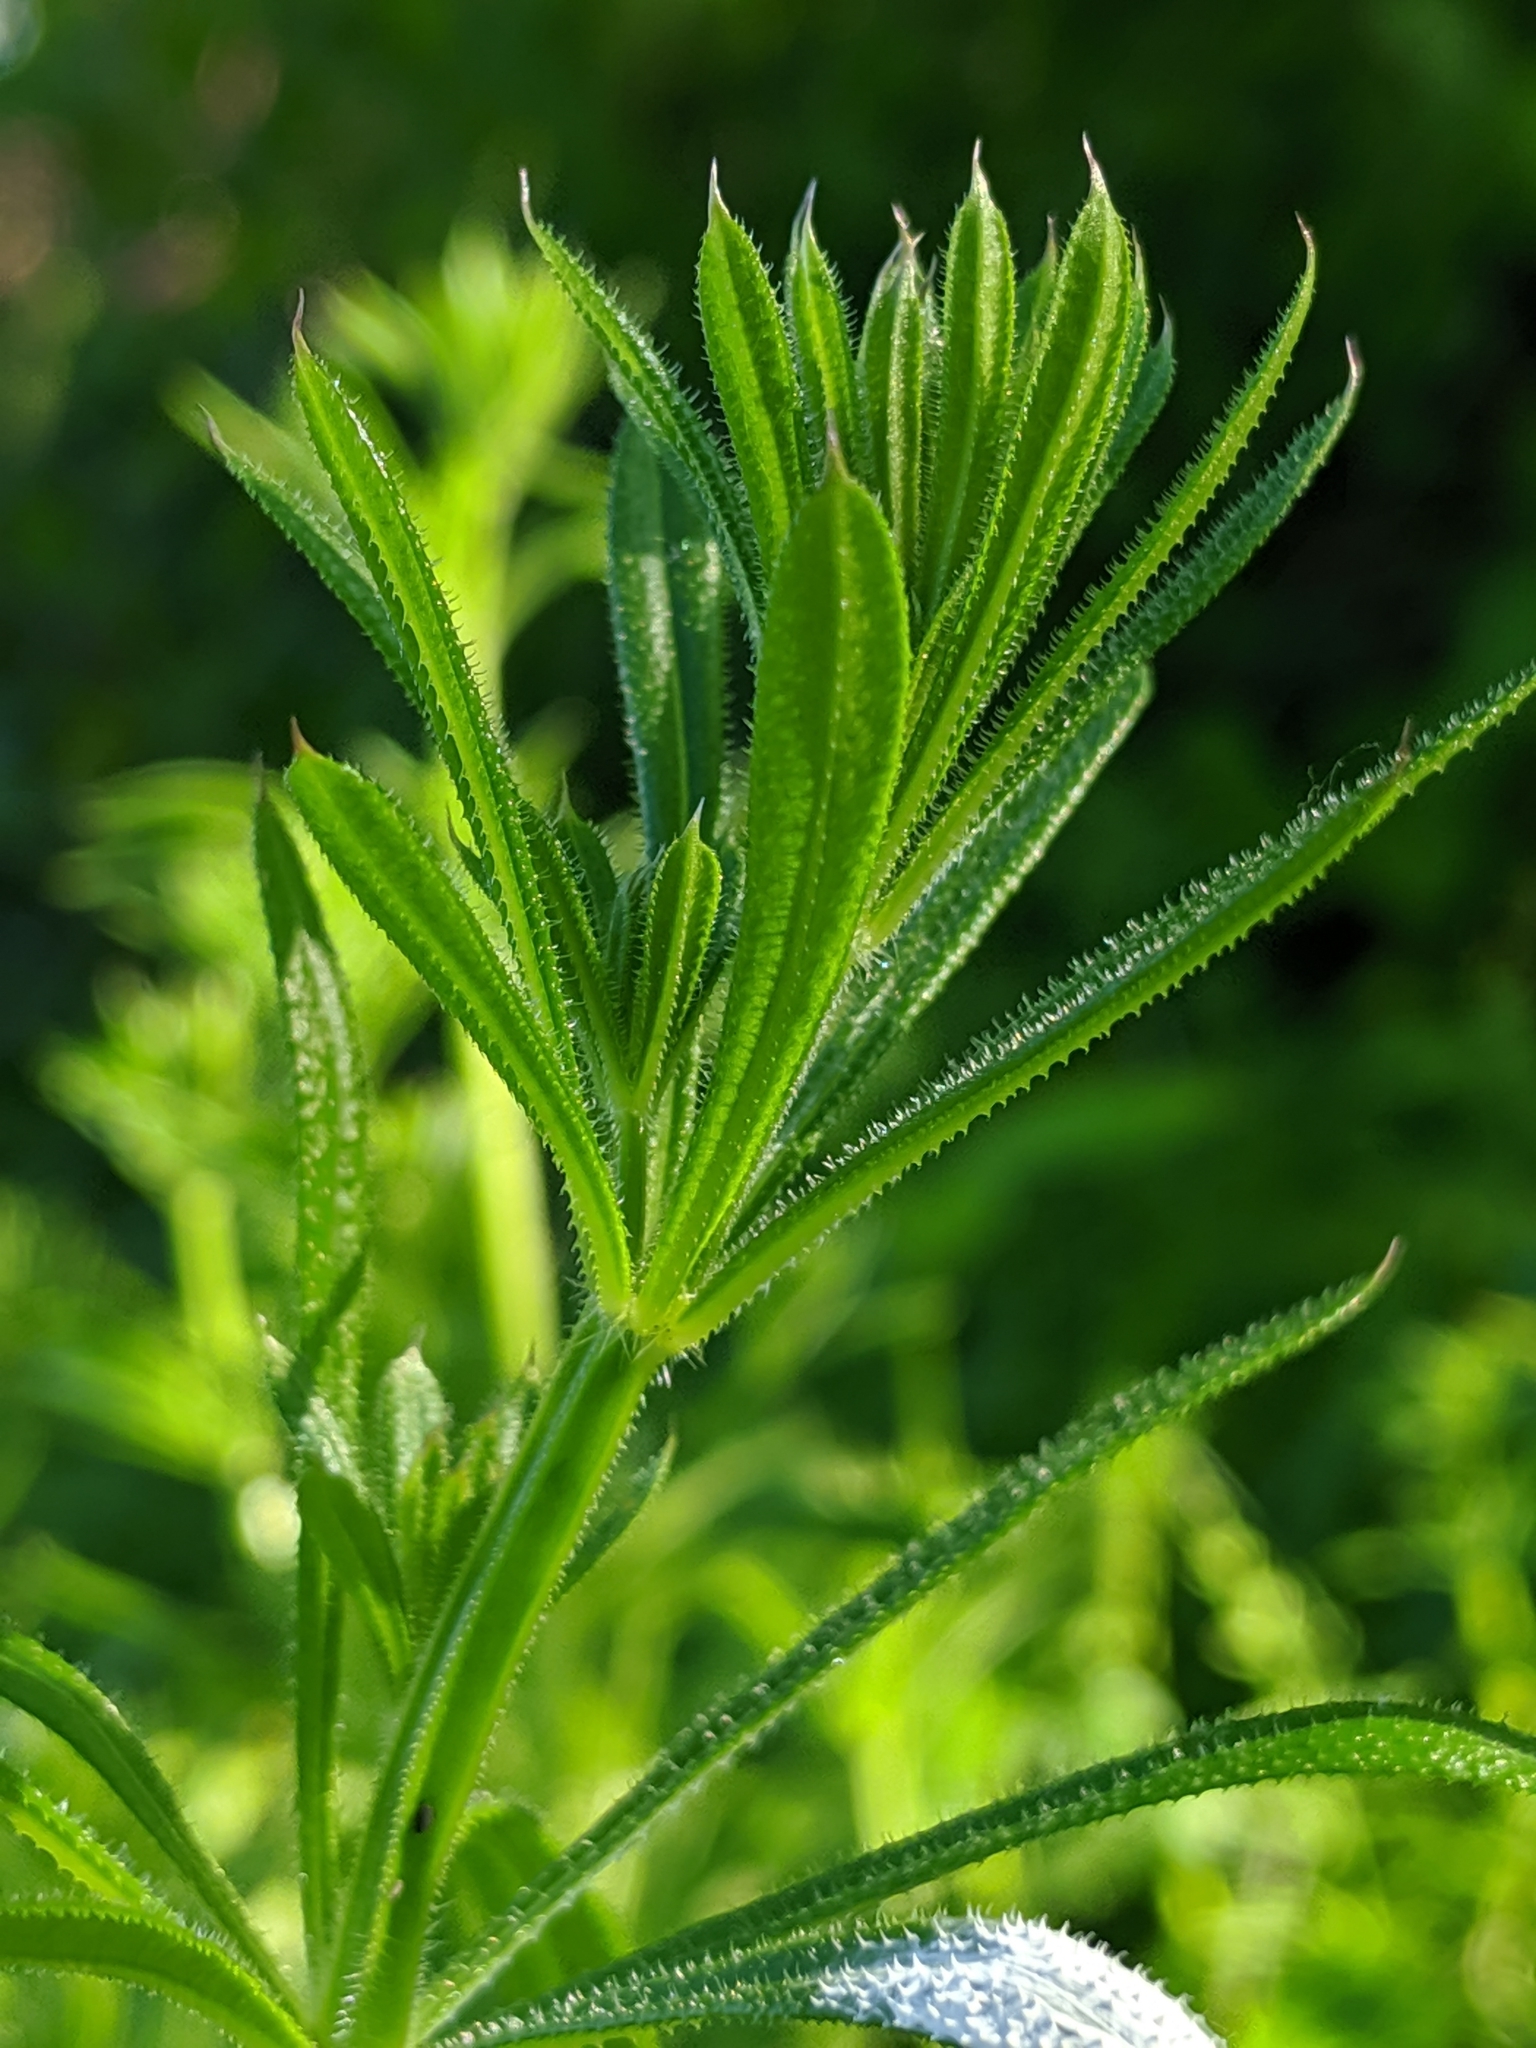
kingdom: Plantae
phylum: Tracheophyta
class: Magnoliopsida
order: Gentianales
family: Rubiaceae
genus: Galium
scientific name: Galium aparine
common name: Cleavers
